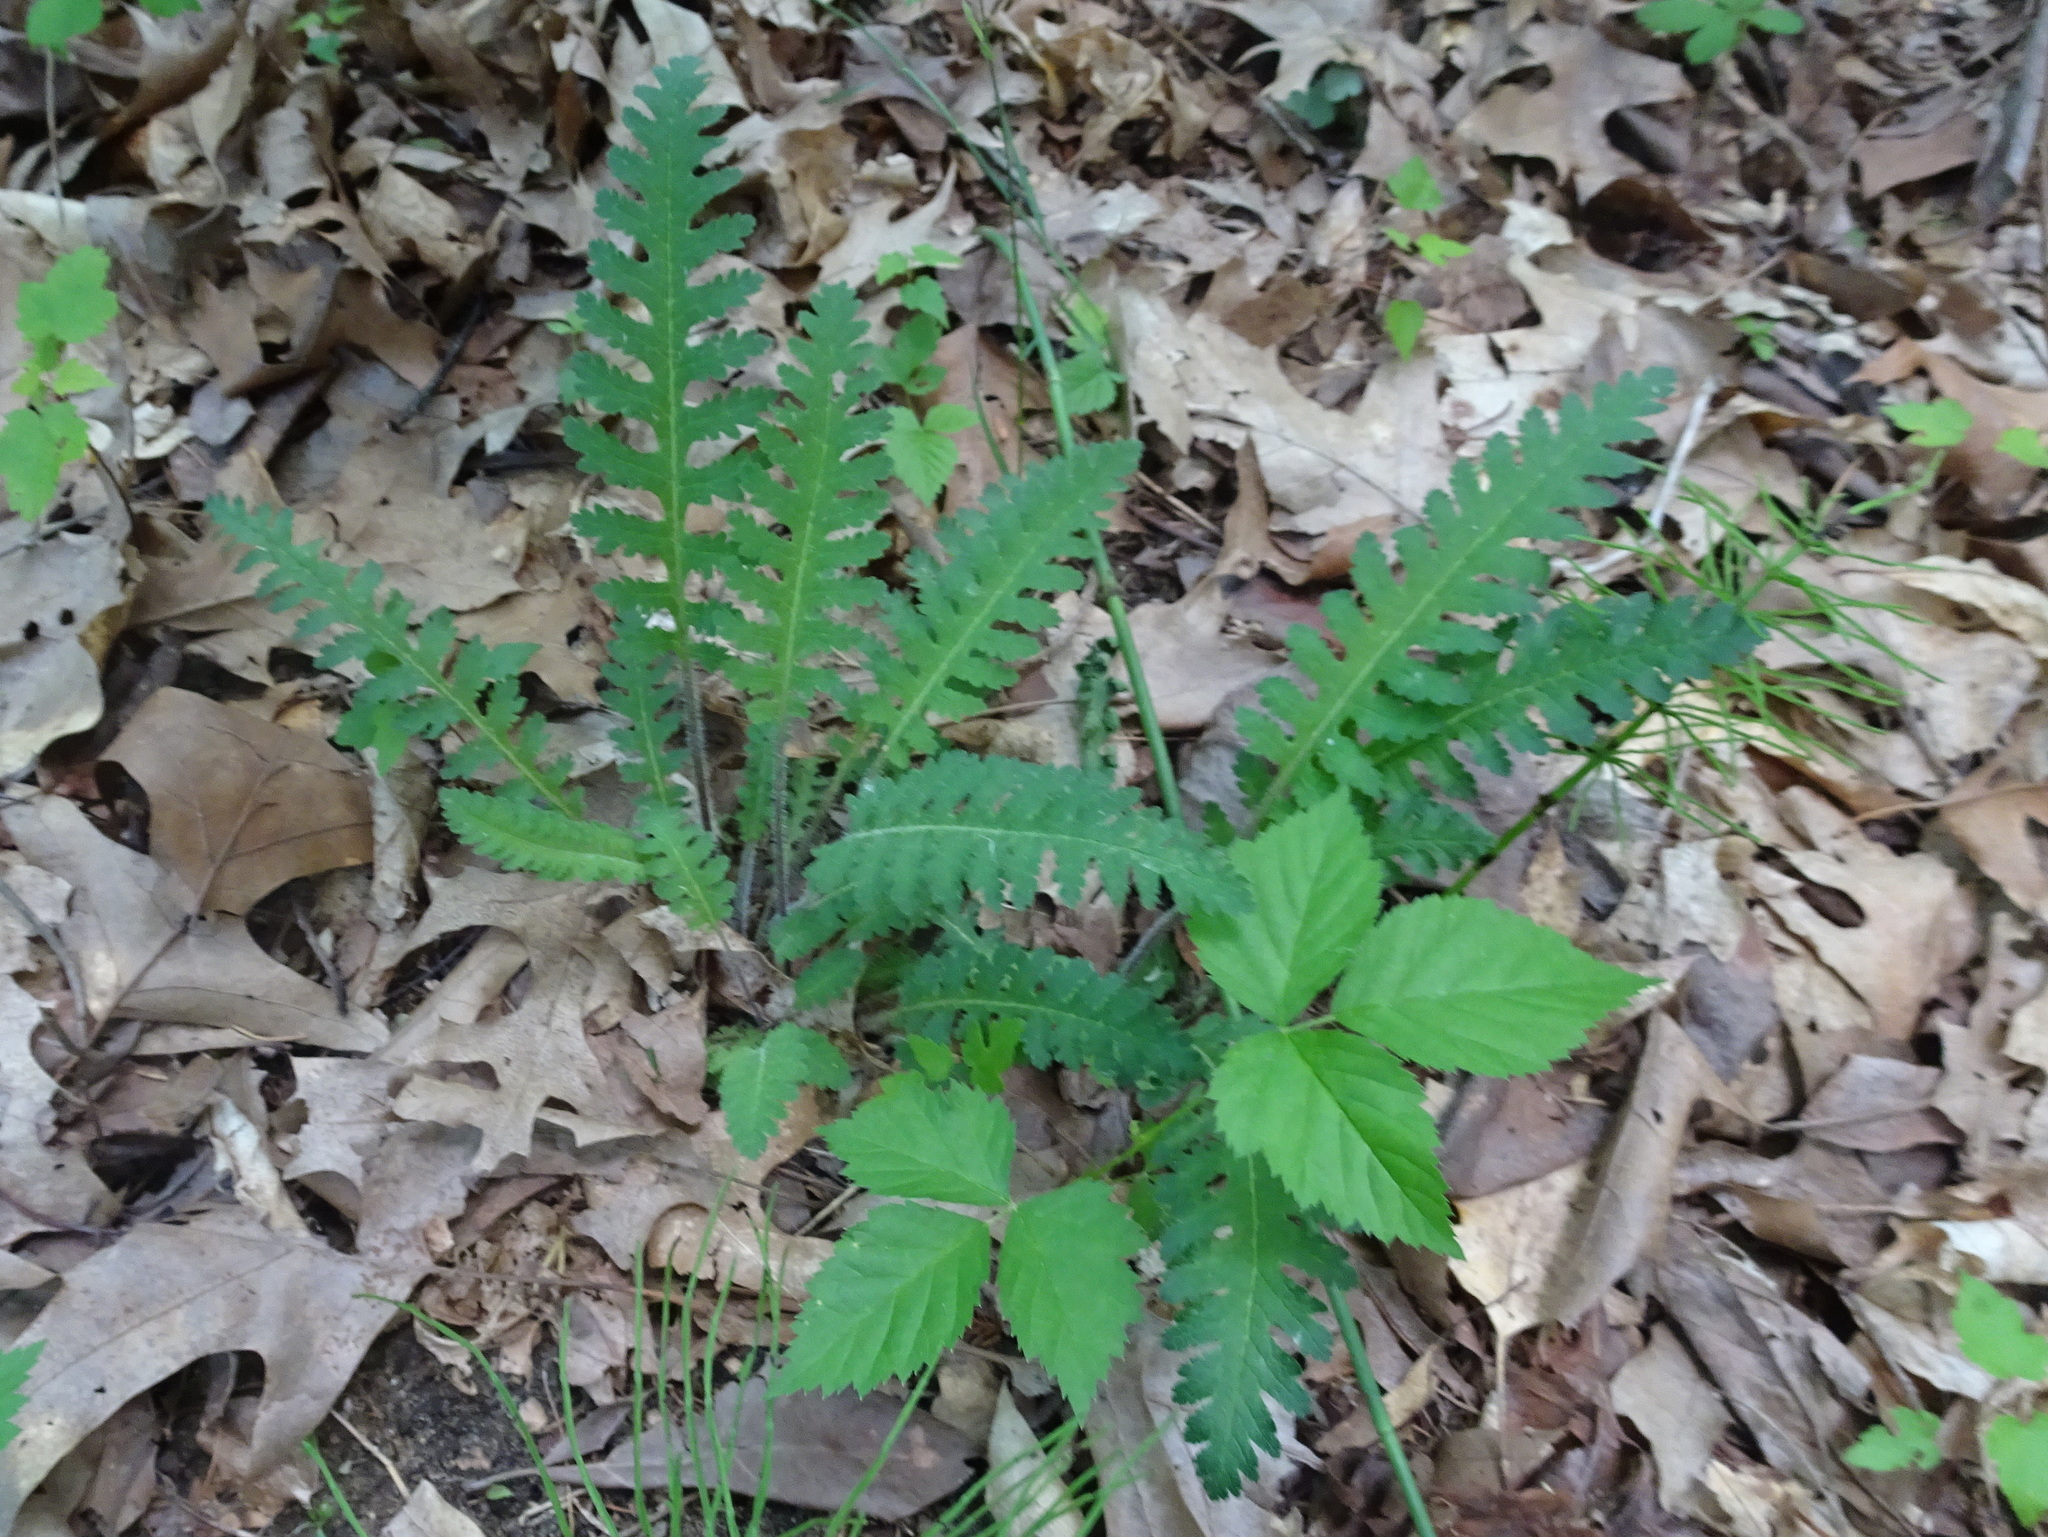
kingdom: Plantae
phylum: Tracheophyta
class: Magnoliopsida
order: Lamiales
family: Orobanchaceae
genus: Pedicularis
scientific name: Pedicularis canadensis
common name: Early lousewort
